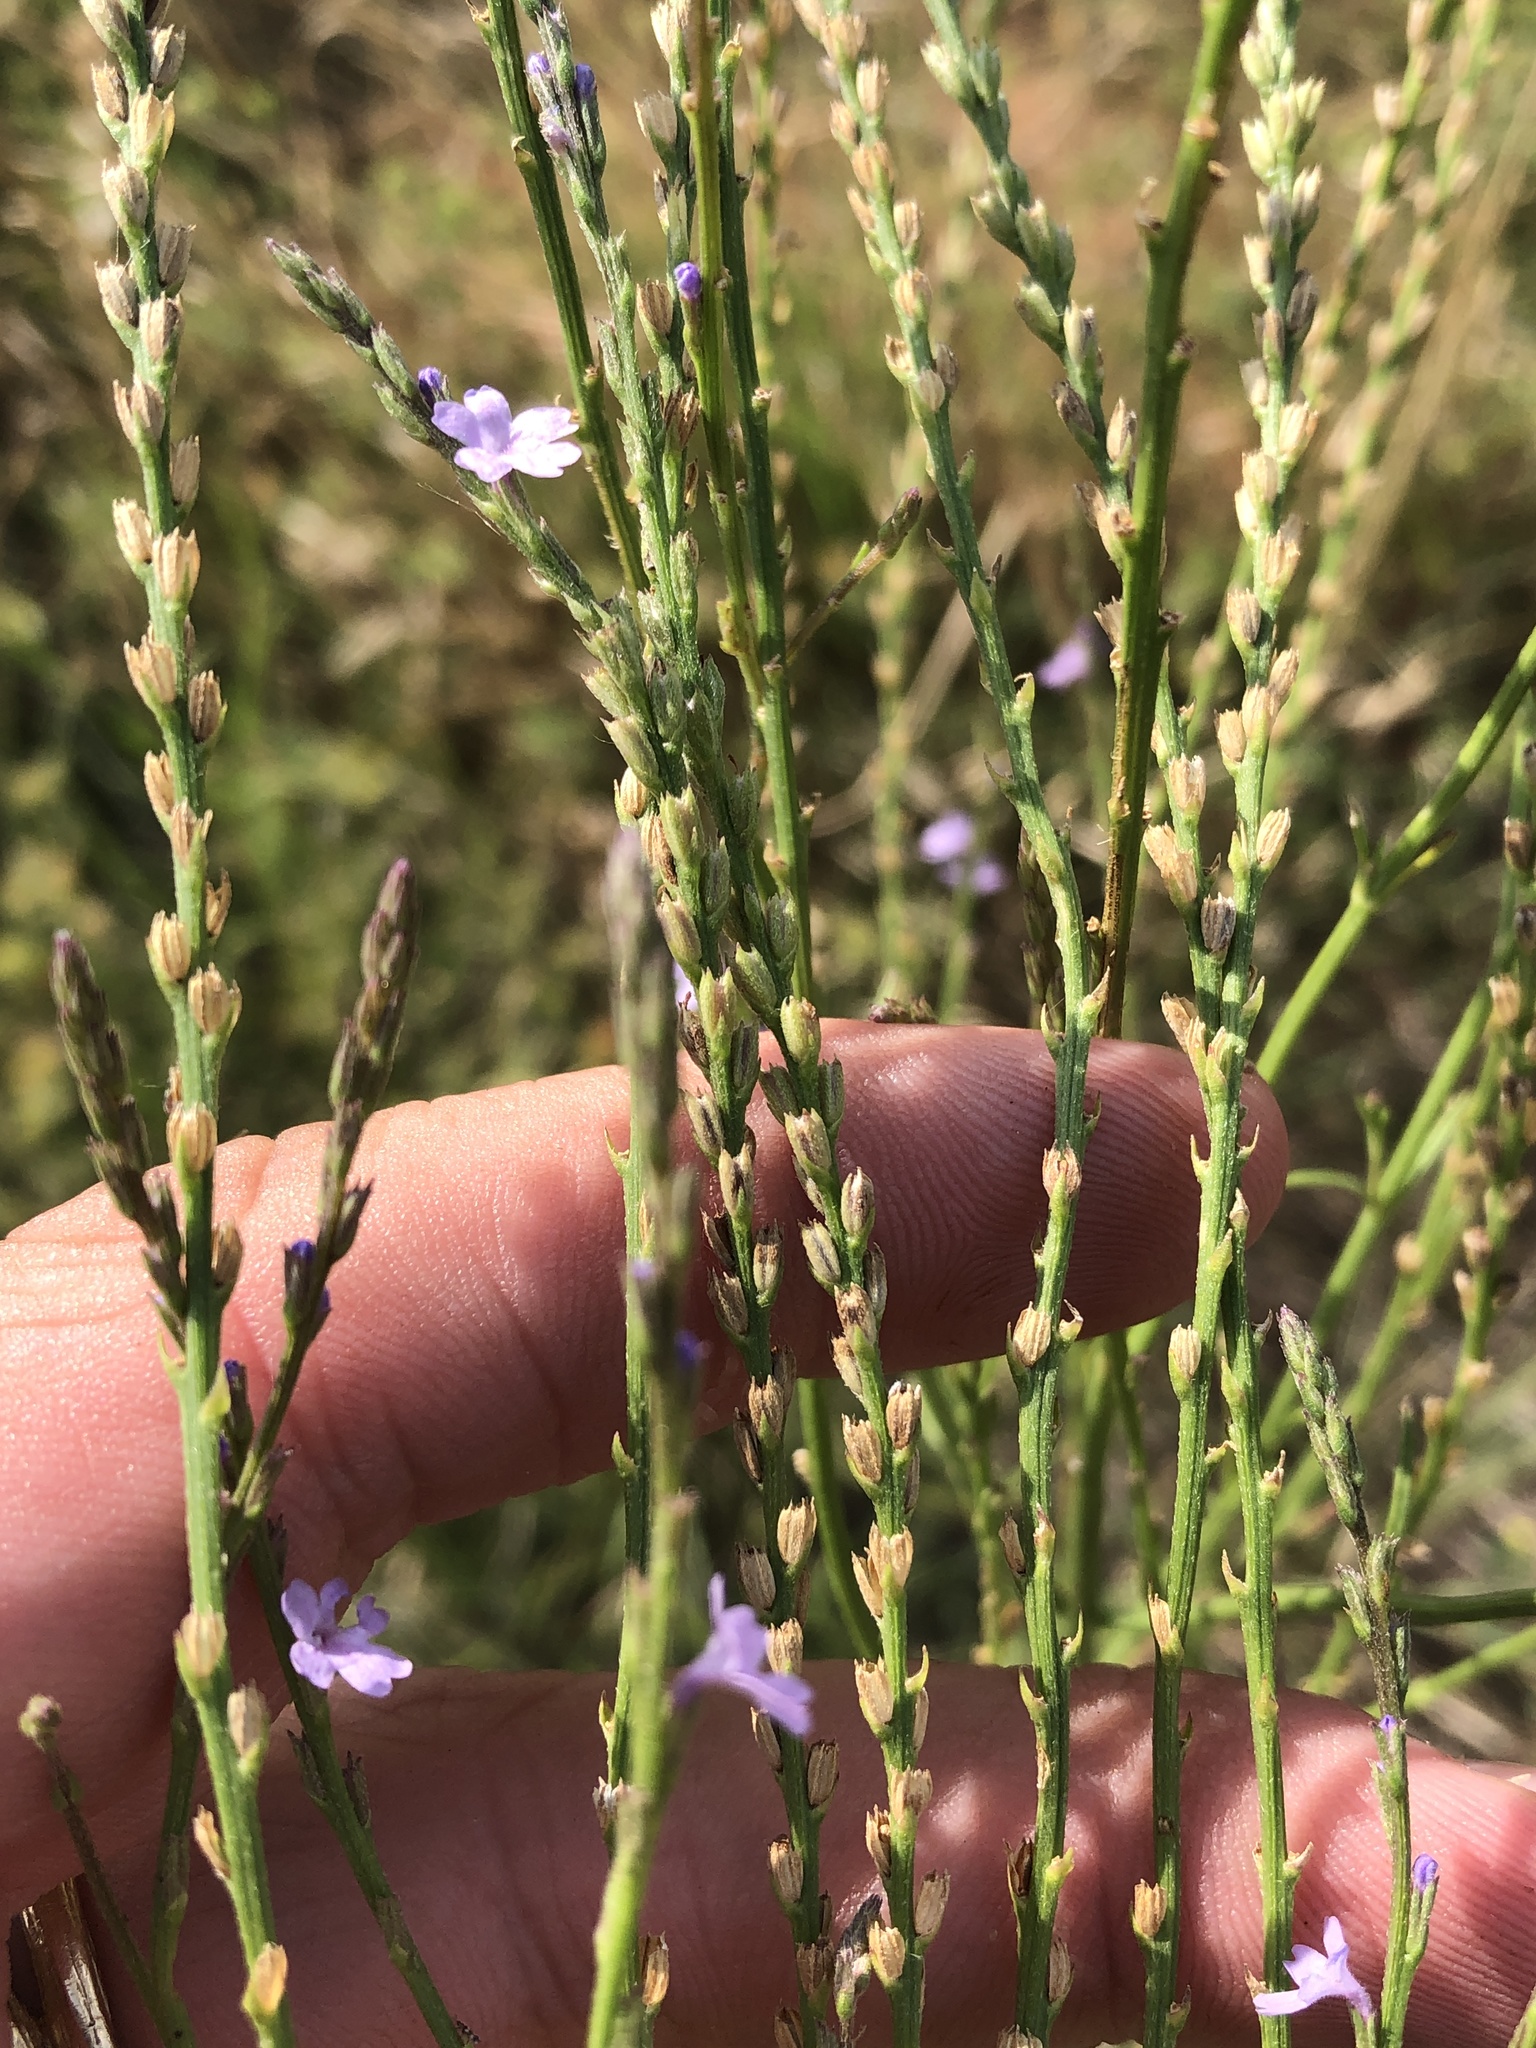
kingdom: Plantae
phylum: Tracheophyta
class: Magnoliopsida
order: Lamiales
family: Verbenaceae
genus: Verbena
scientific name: Verbena halei
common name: Texas vervain
